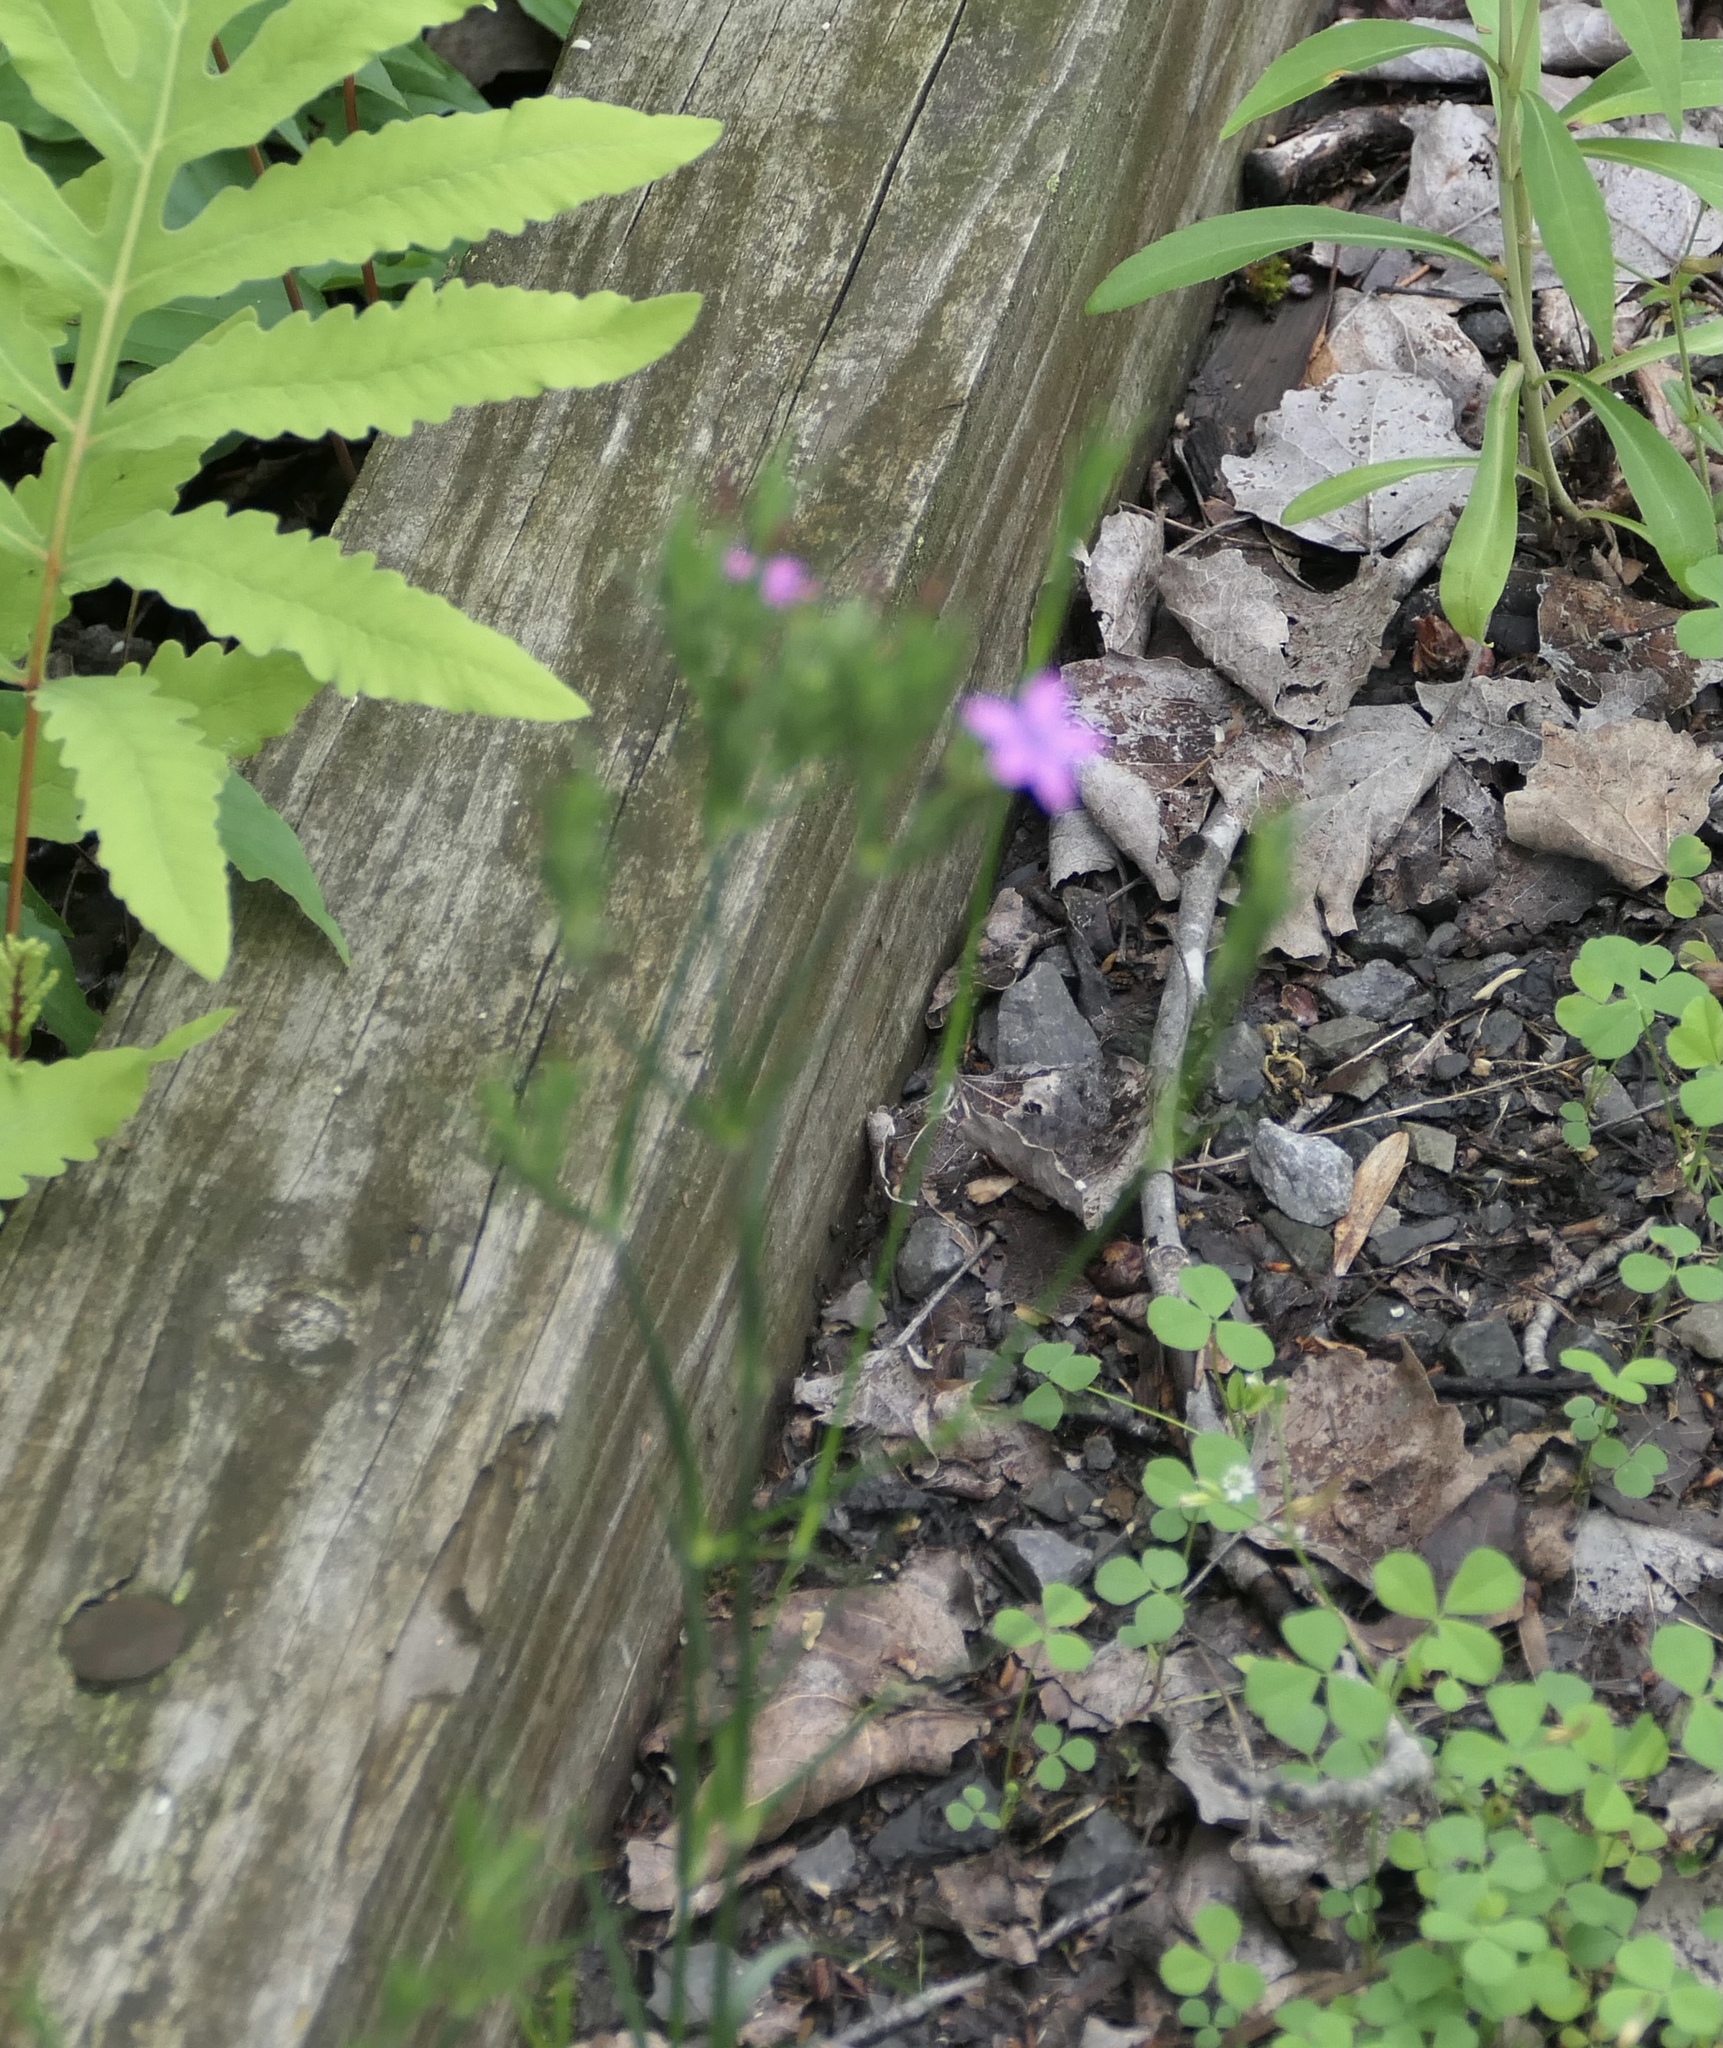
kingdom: Plantae
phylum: Tracheophyta
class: Magnoliopsida
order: Caryophyllales
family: Caryophyllaceae
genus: Dianthus
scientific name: Dianthus armeria
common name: Deptford pink
